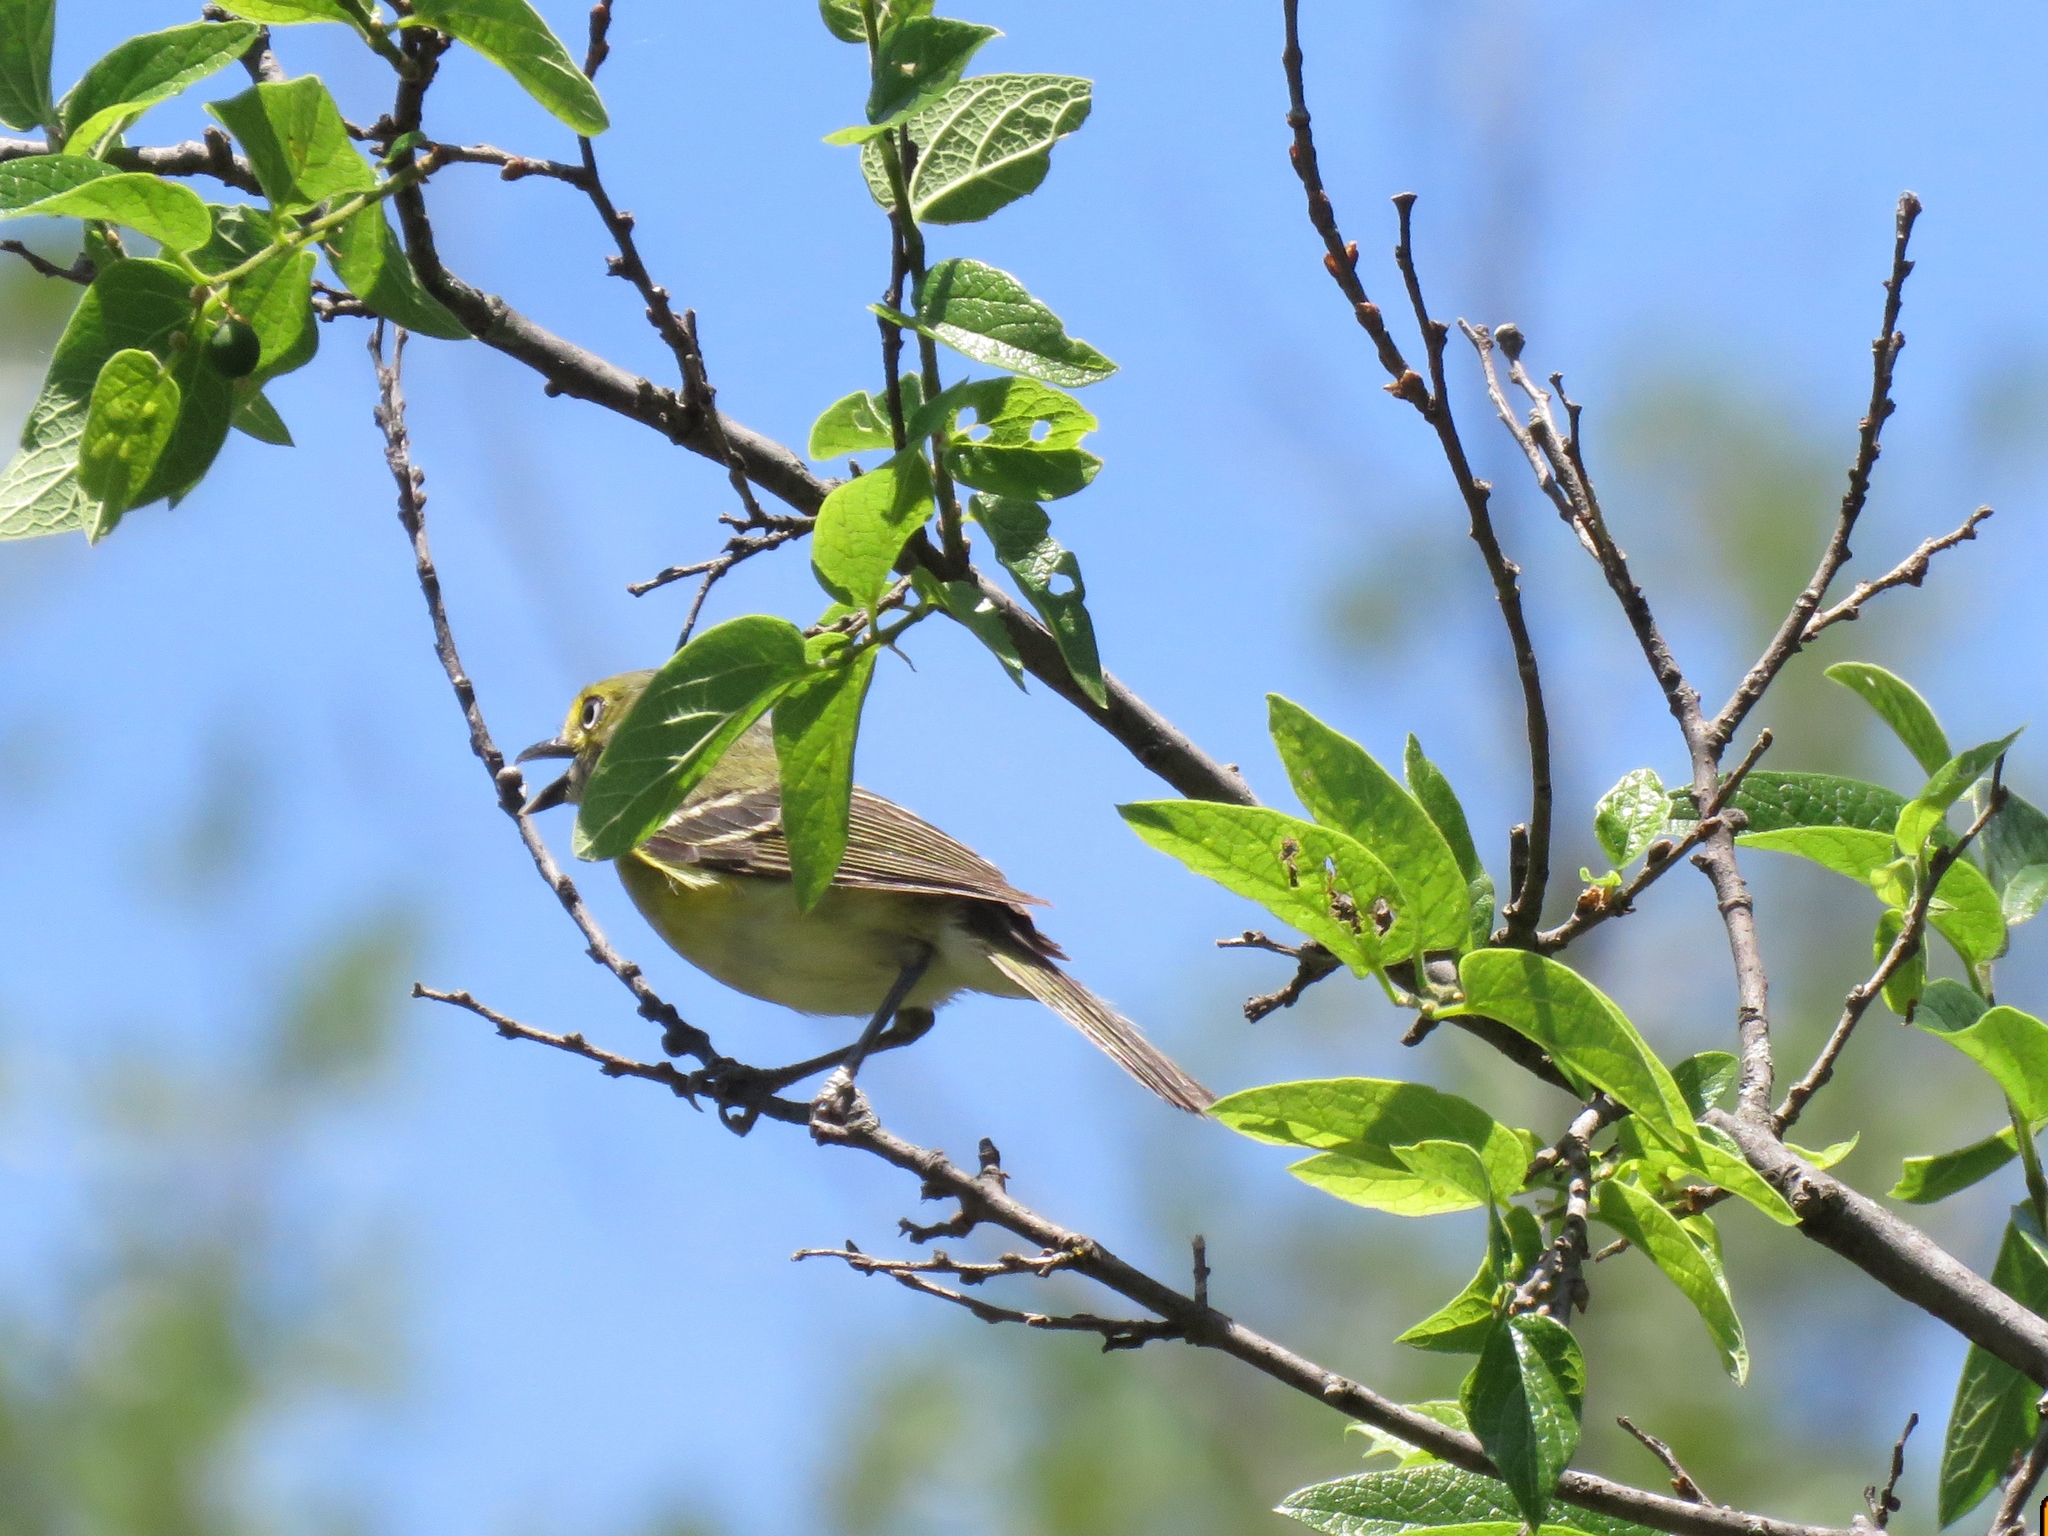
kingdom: Animalia
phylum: Chordata
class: Aves
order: Passeriformes
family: Vireonidae
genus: Vireo
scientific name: Vireo griseus
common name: White-eyed vireo
